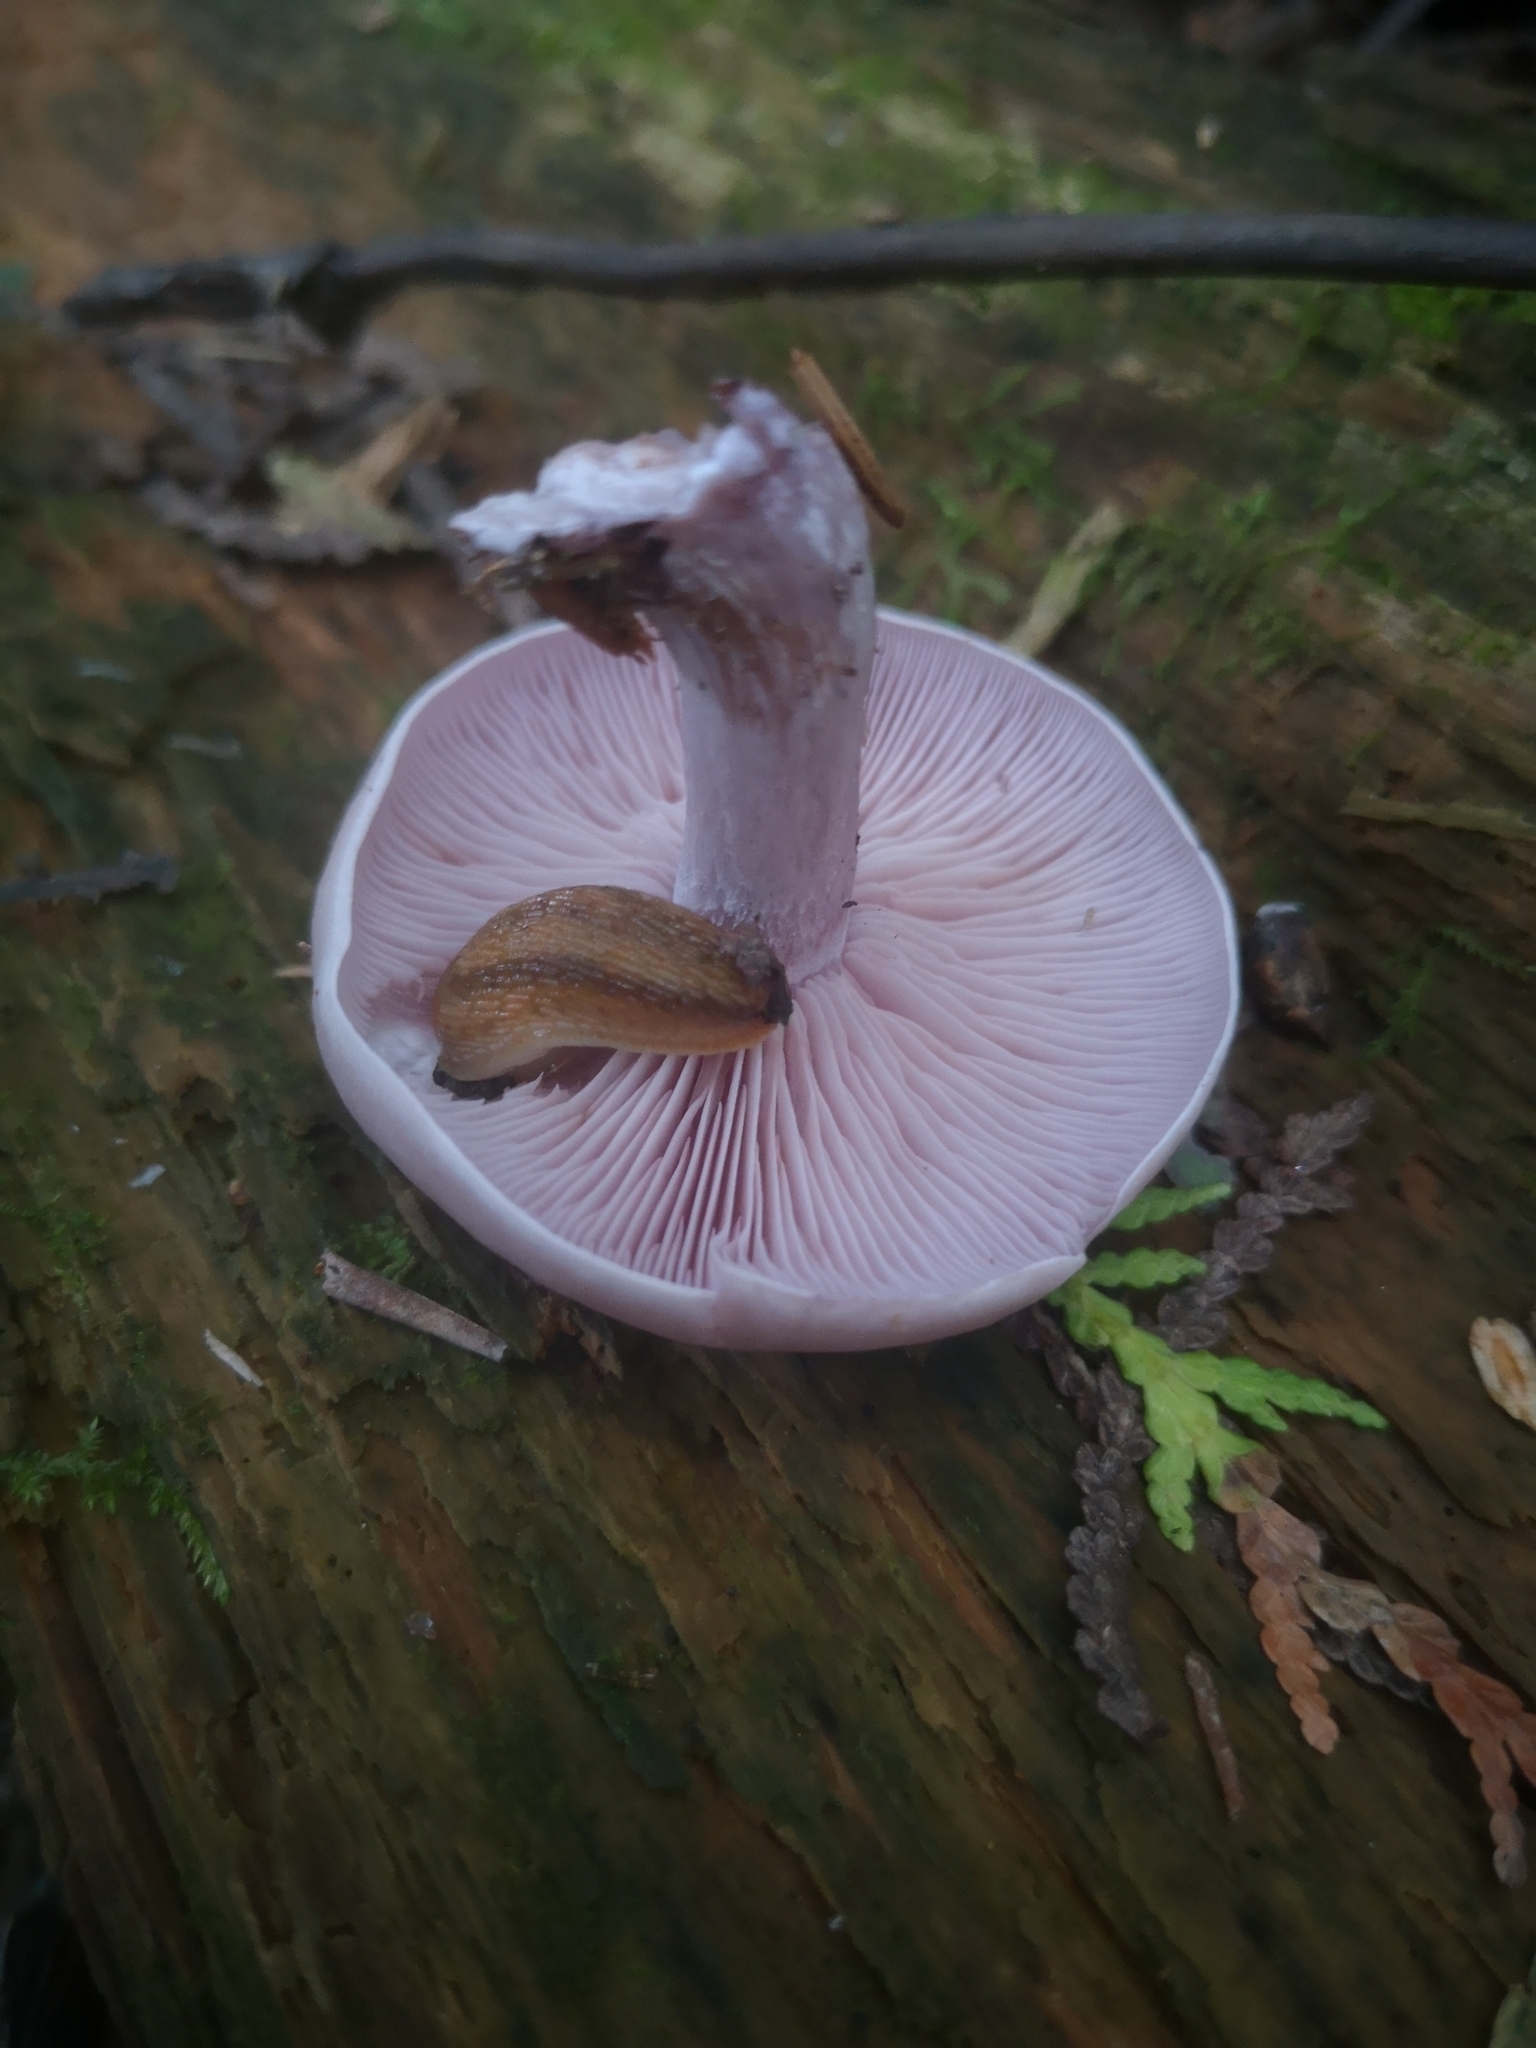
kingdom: Fungi
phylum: Basidiomycota
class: Agaricomycetes
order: Agaricales
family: Tricholomataceae
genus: Collybia
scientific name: Collybia
